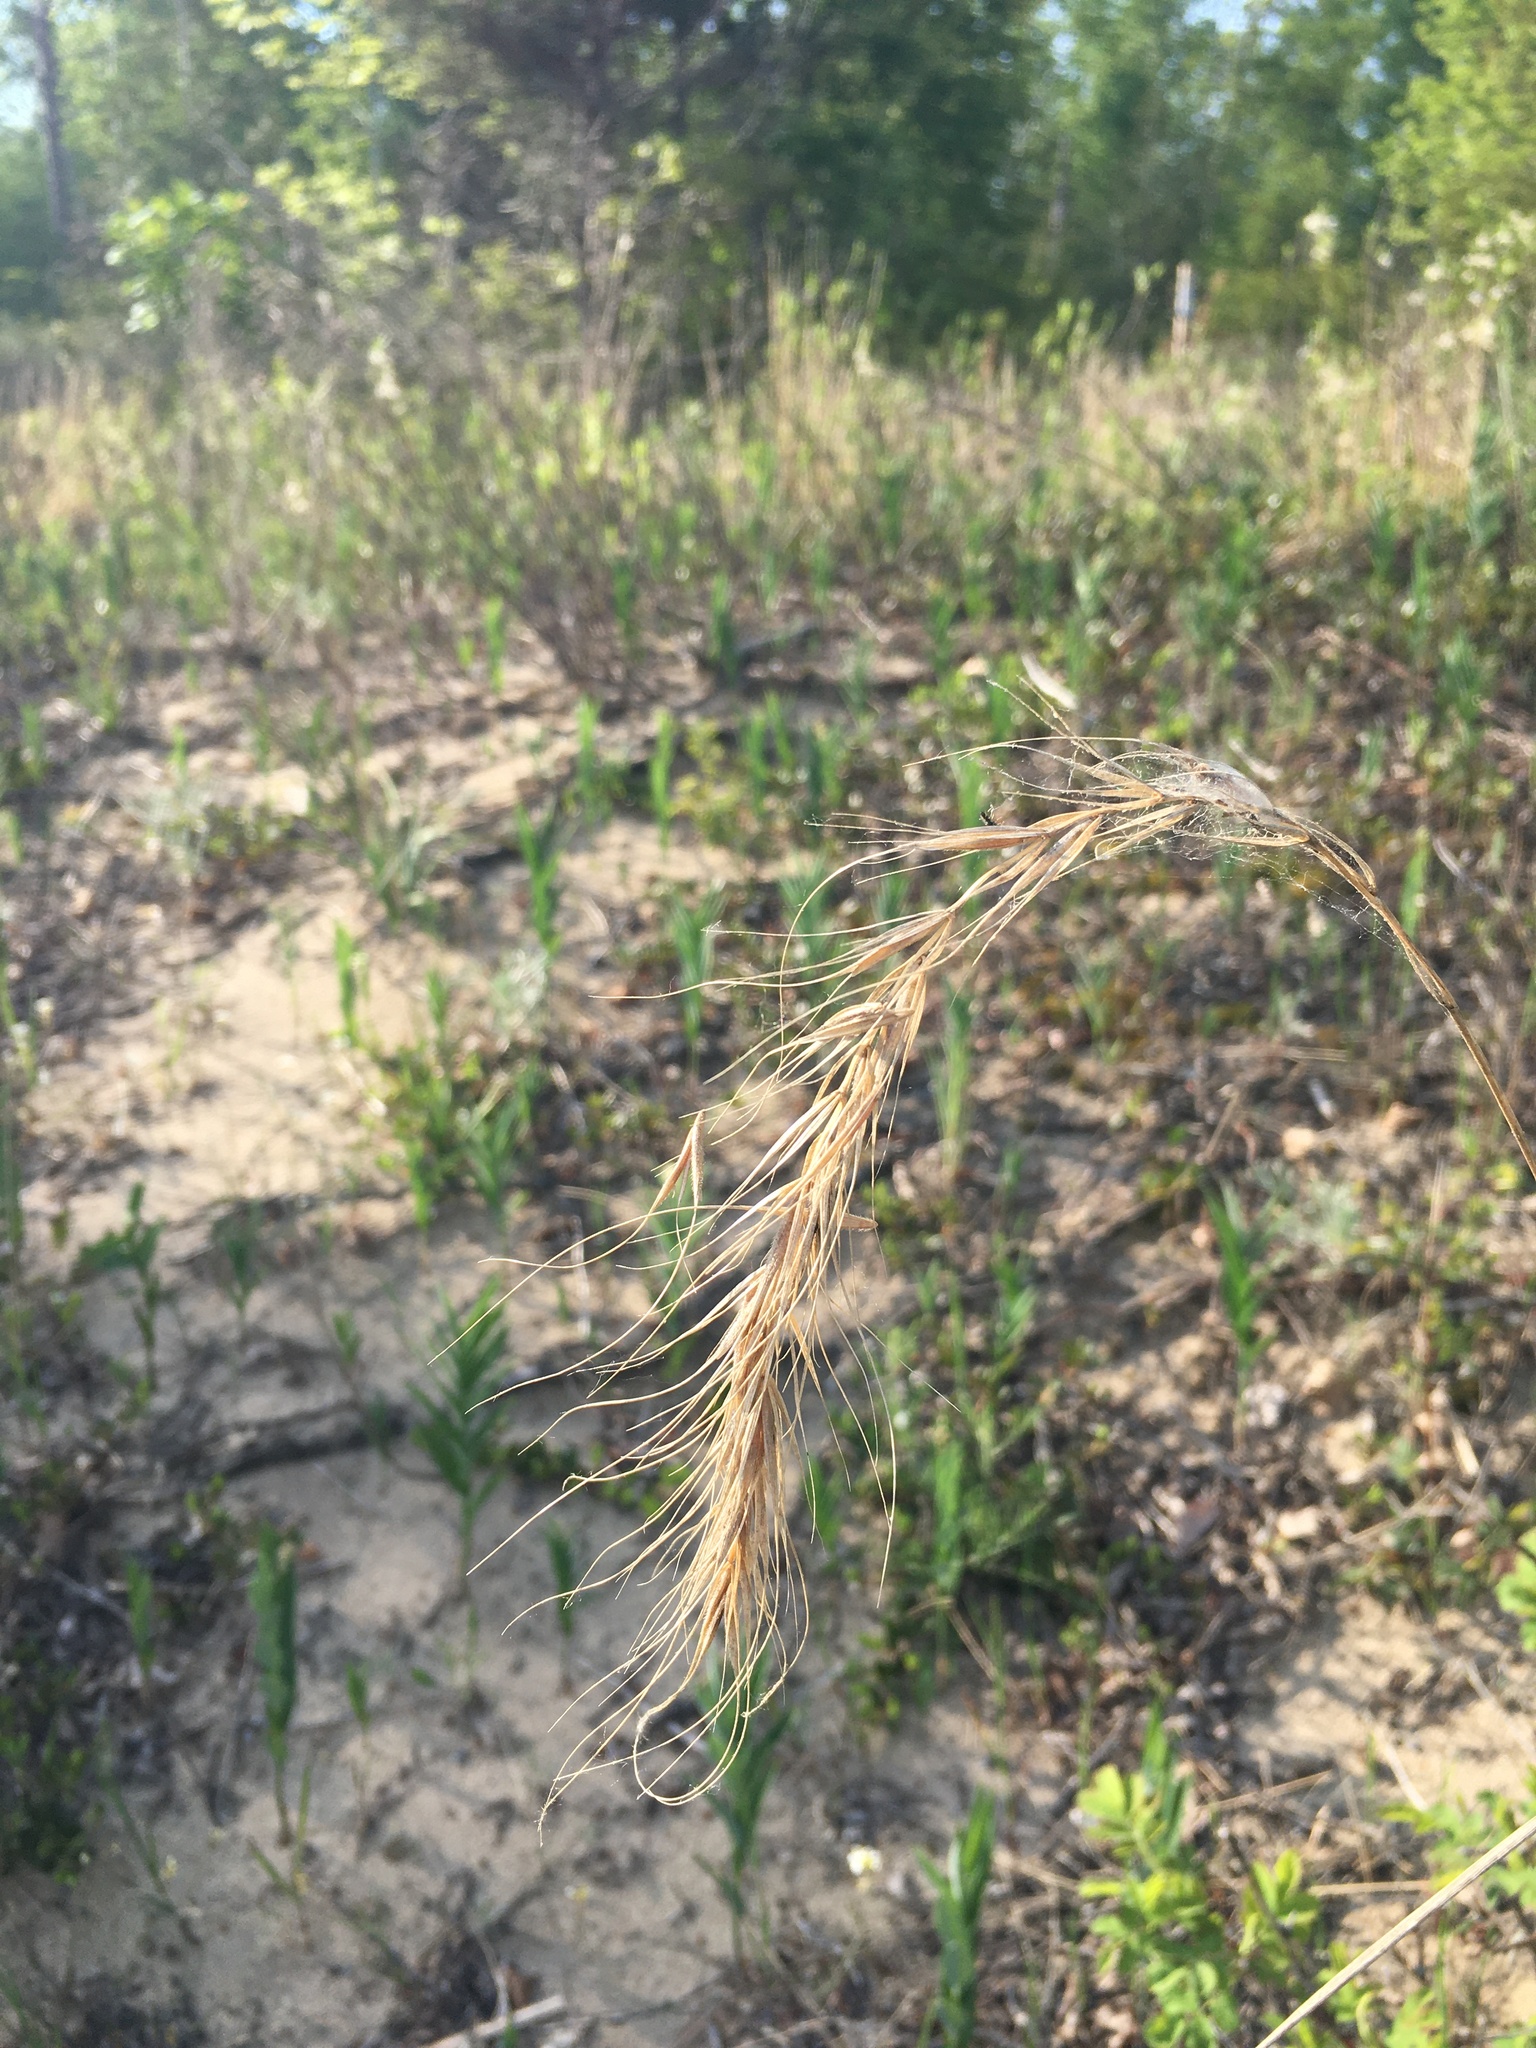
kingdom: Plantae
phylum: Tracheophyta
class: Liliopsida
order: Poales
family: Poaceae
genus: Elymus
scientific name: Elymus canadensis
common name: Canada wild rye
